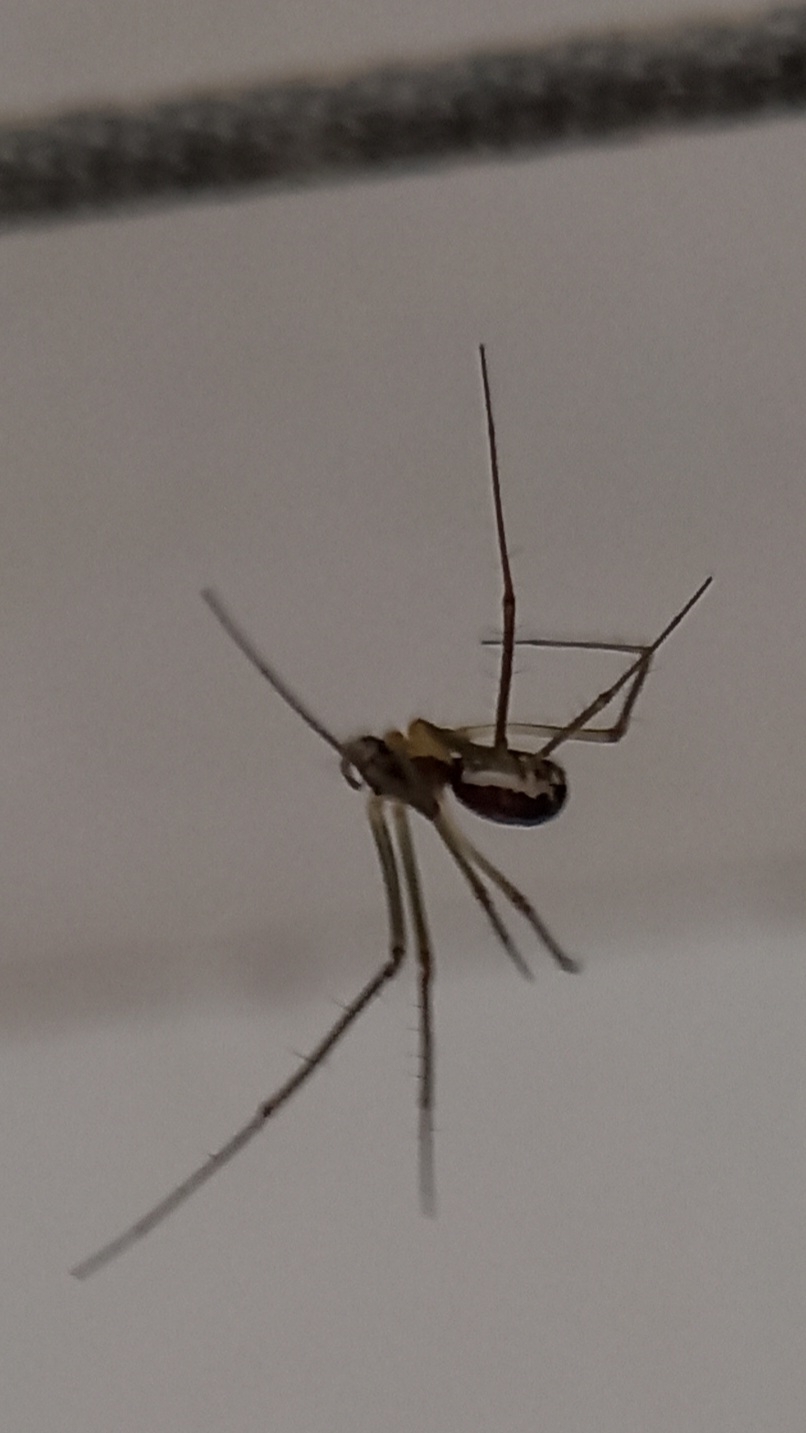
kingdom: Animalia
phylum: Arthropoda
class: Arachnida
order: Araneae
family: Linyphiidae
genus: Neriene
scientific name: Neriene radiata
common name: Filmy dome spider
